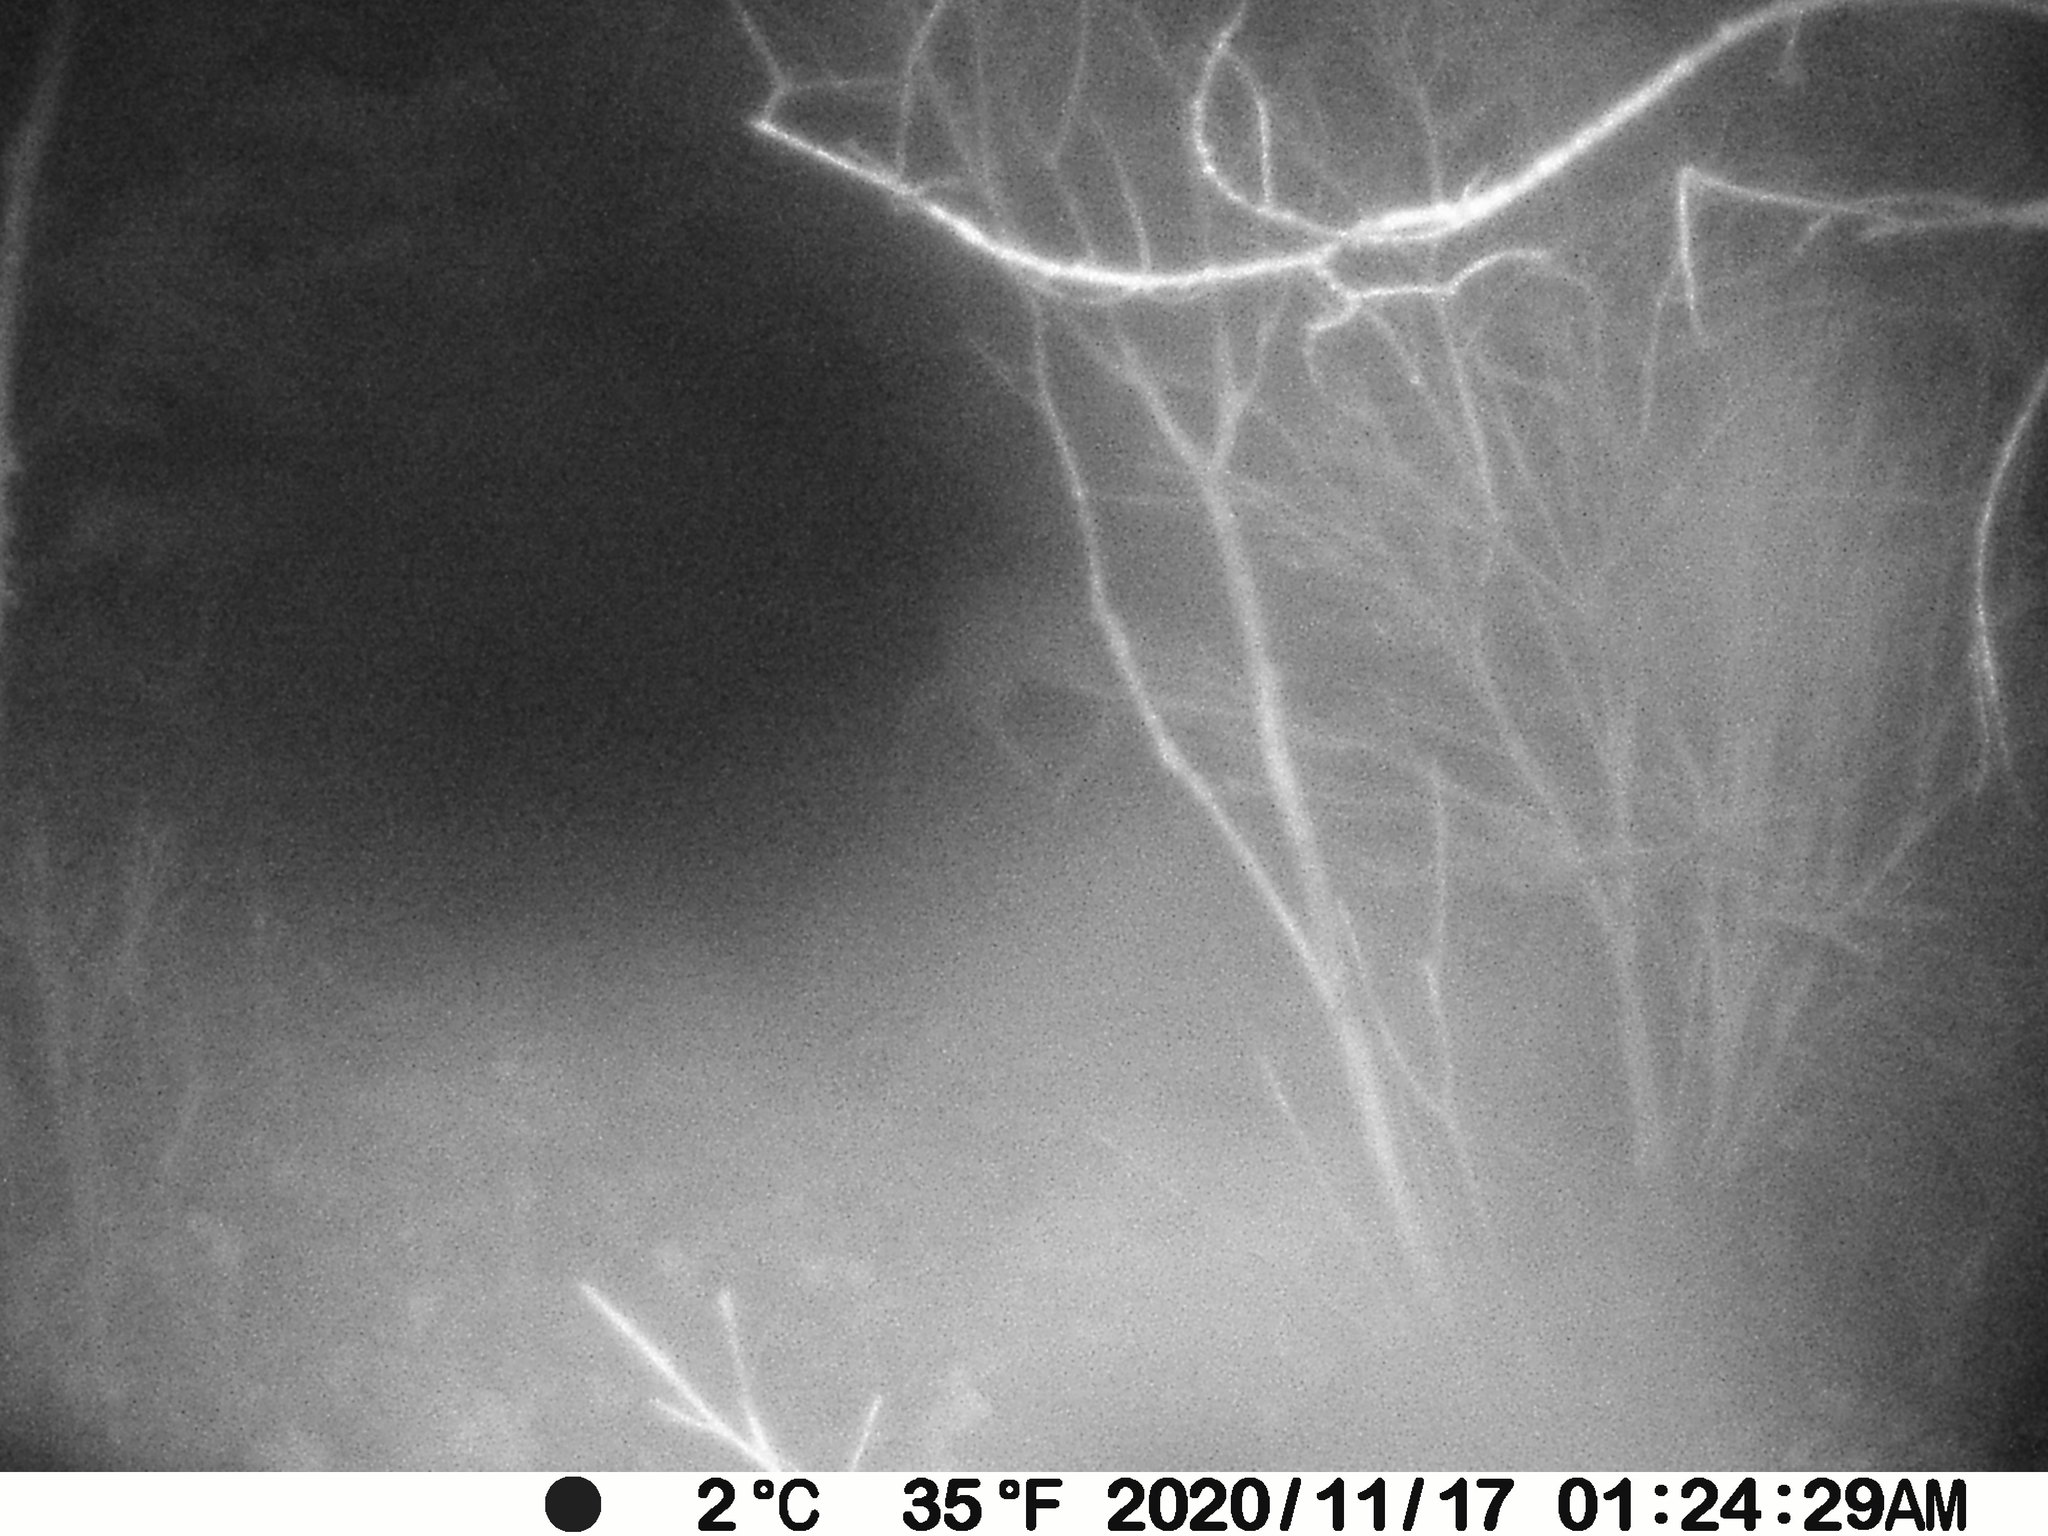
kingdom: Animalia
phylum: Chordata
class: Mammalia
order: Artiodactyla
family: Cervidae
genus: Odocoileus
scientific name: Odocoileus virginianus
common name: White-tailed deer
